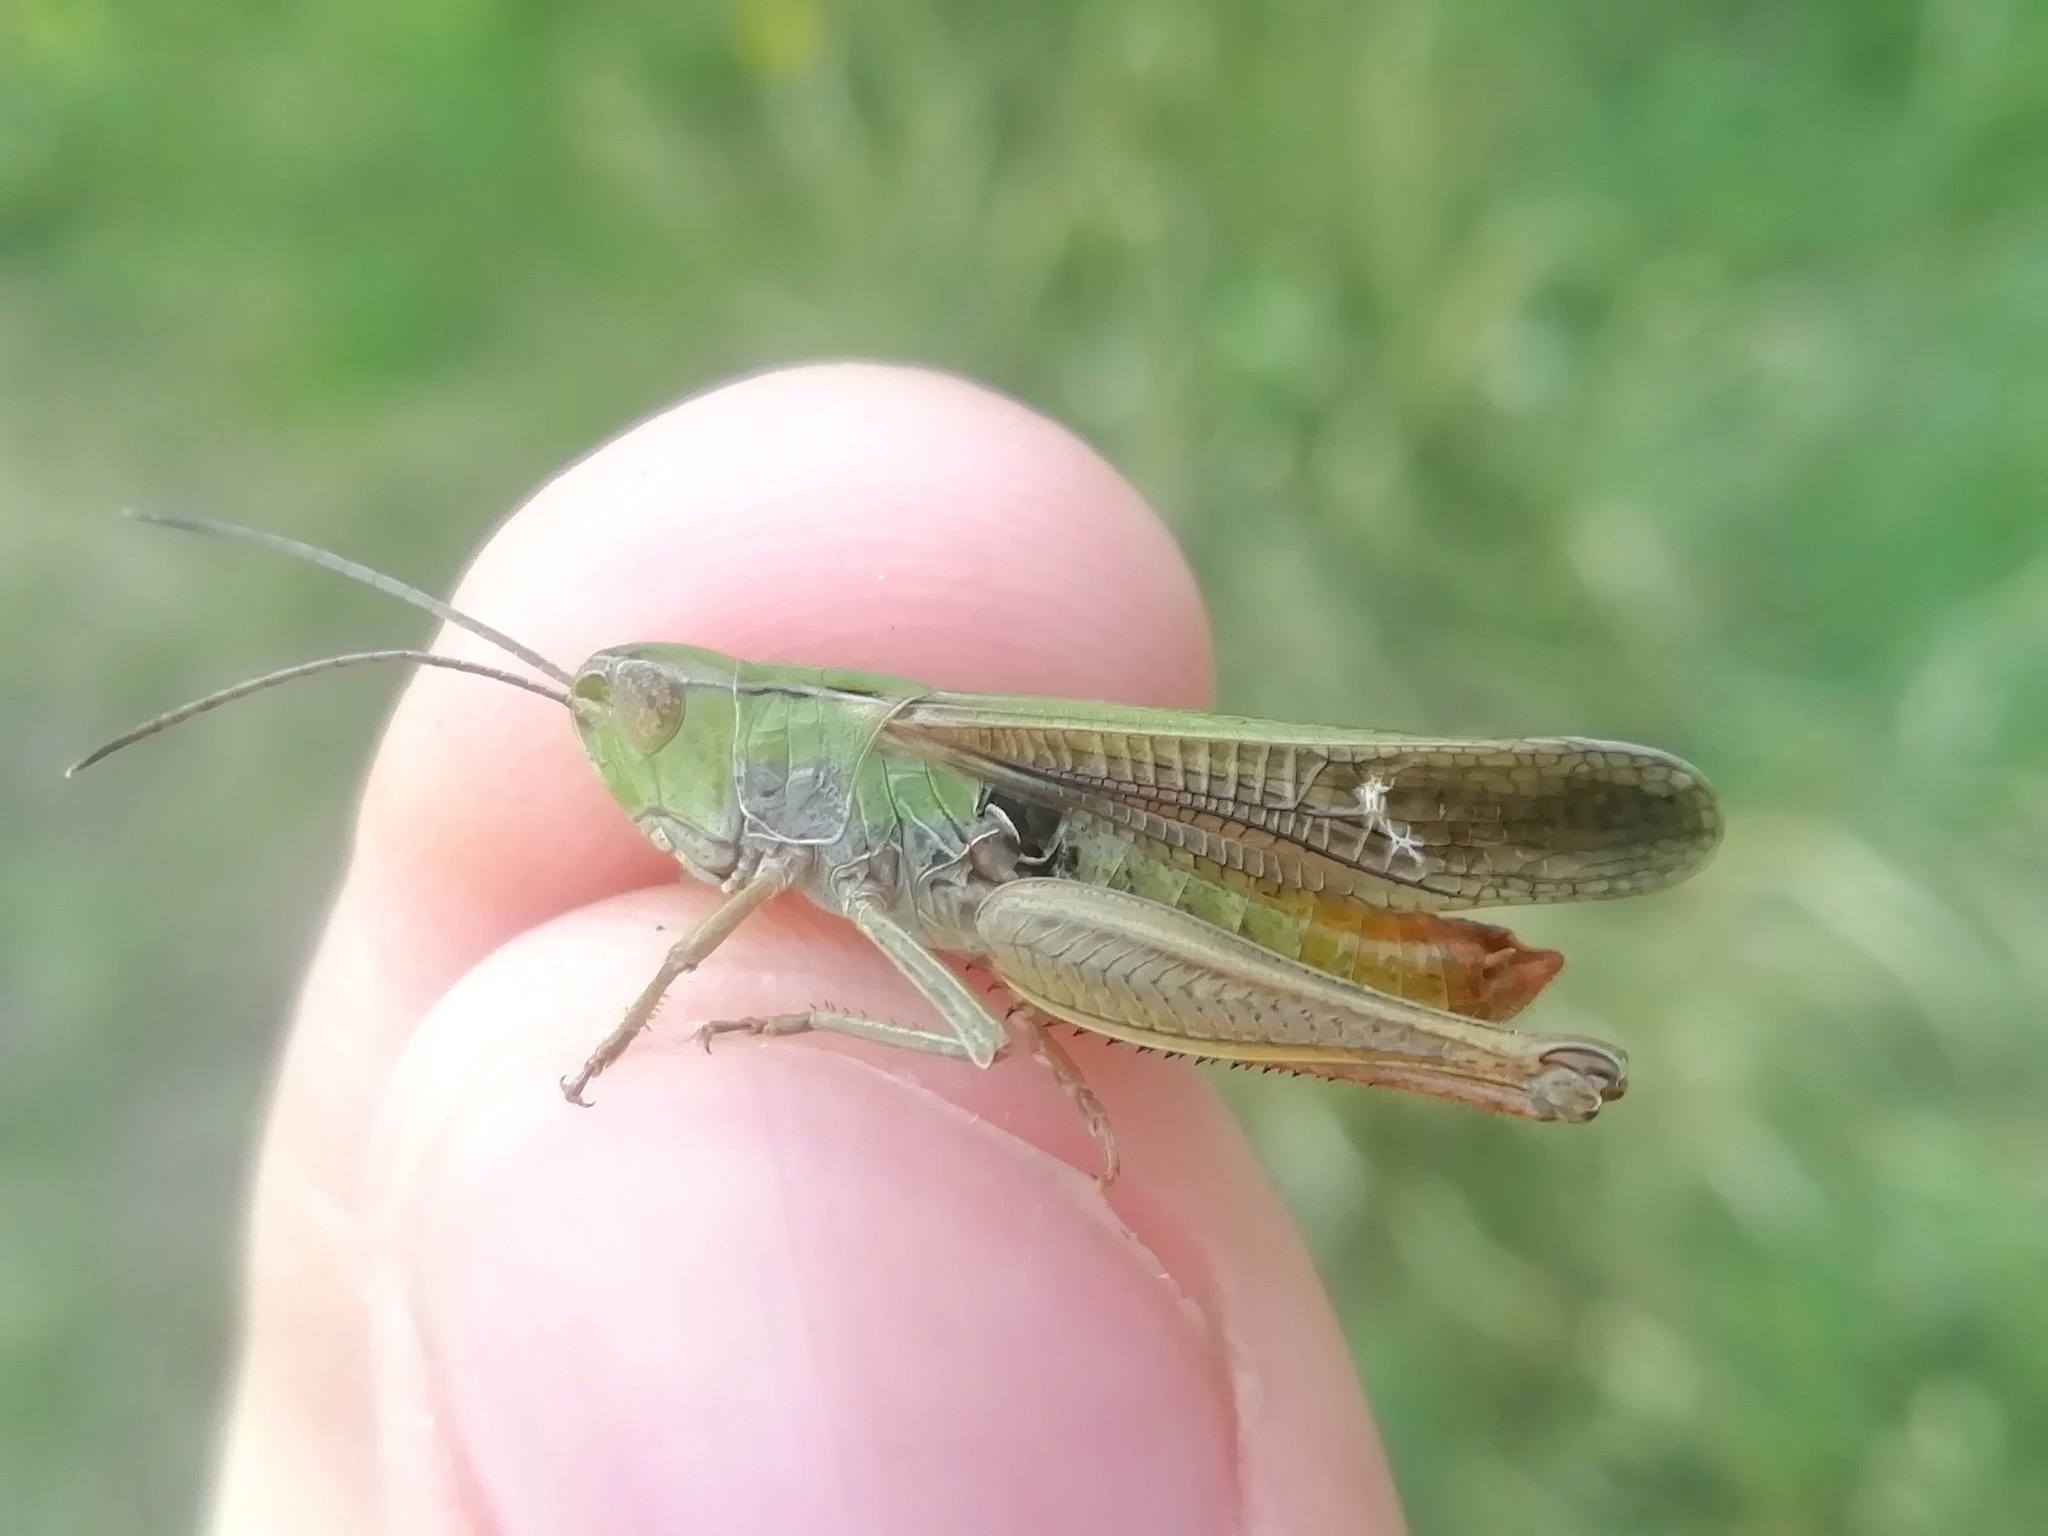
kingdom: Animalia
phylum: Arthropoda
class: Insecta
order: Orthoptera
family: Acrididae
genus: Stenobothrus
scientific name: Stenobothrus lineatus
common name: Stripe-winged grasshopper
